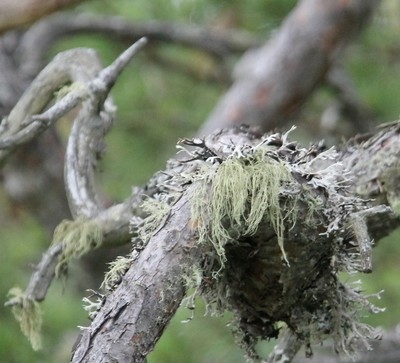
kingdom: Fungi
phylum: Ascomycota
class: Lecanoromycetes
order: Lecanorales
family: Parmeliaceae
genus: Pseudevernia
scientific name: Pseudevernia furfuracea
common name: Tree moss
